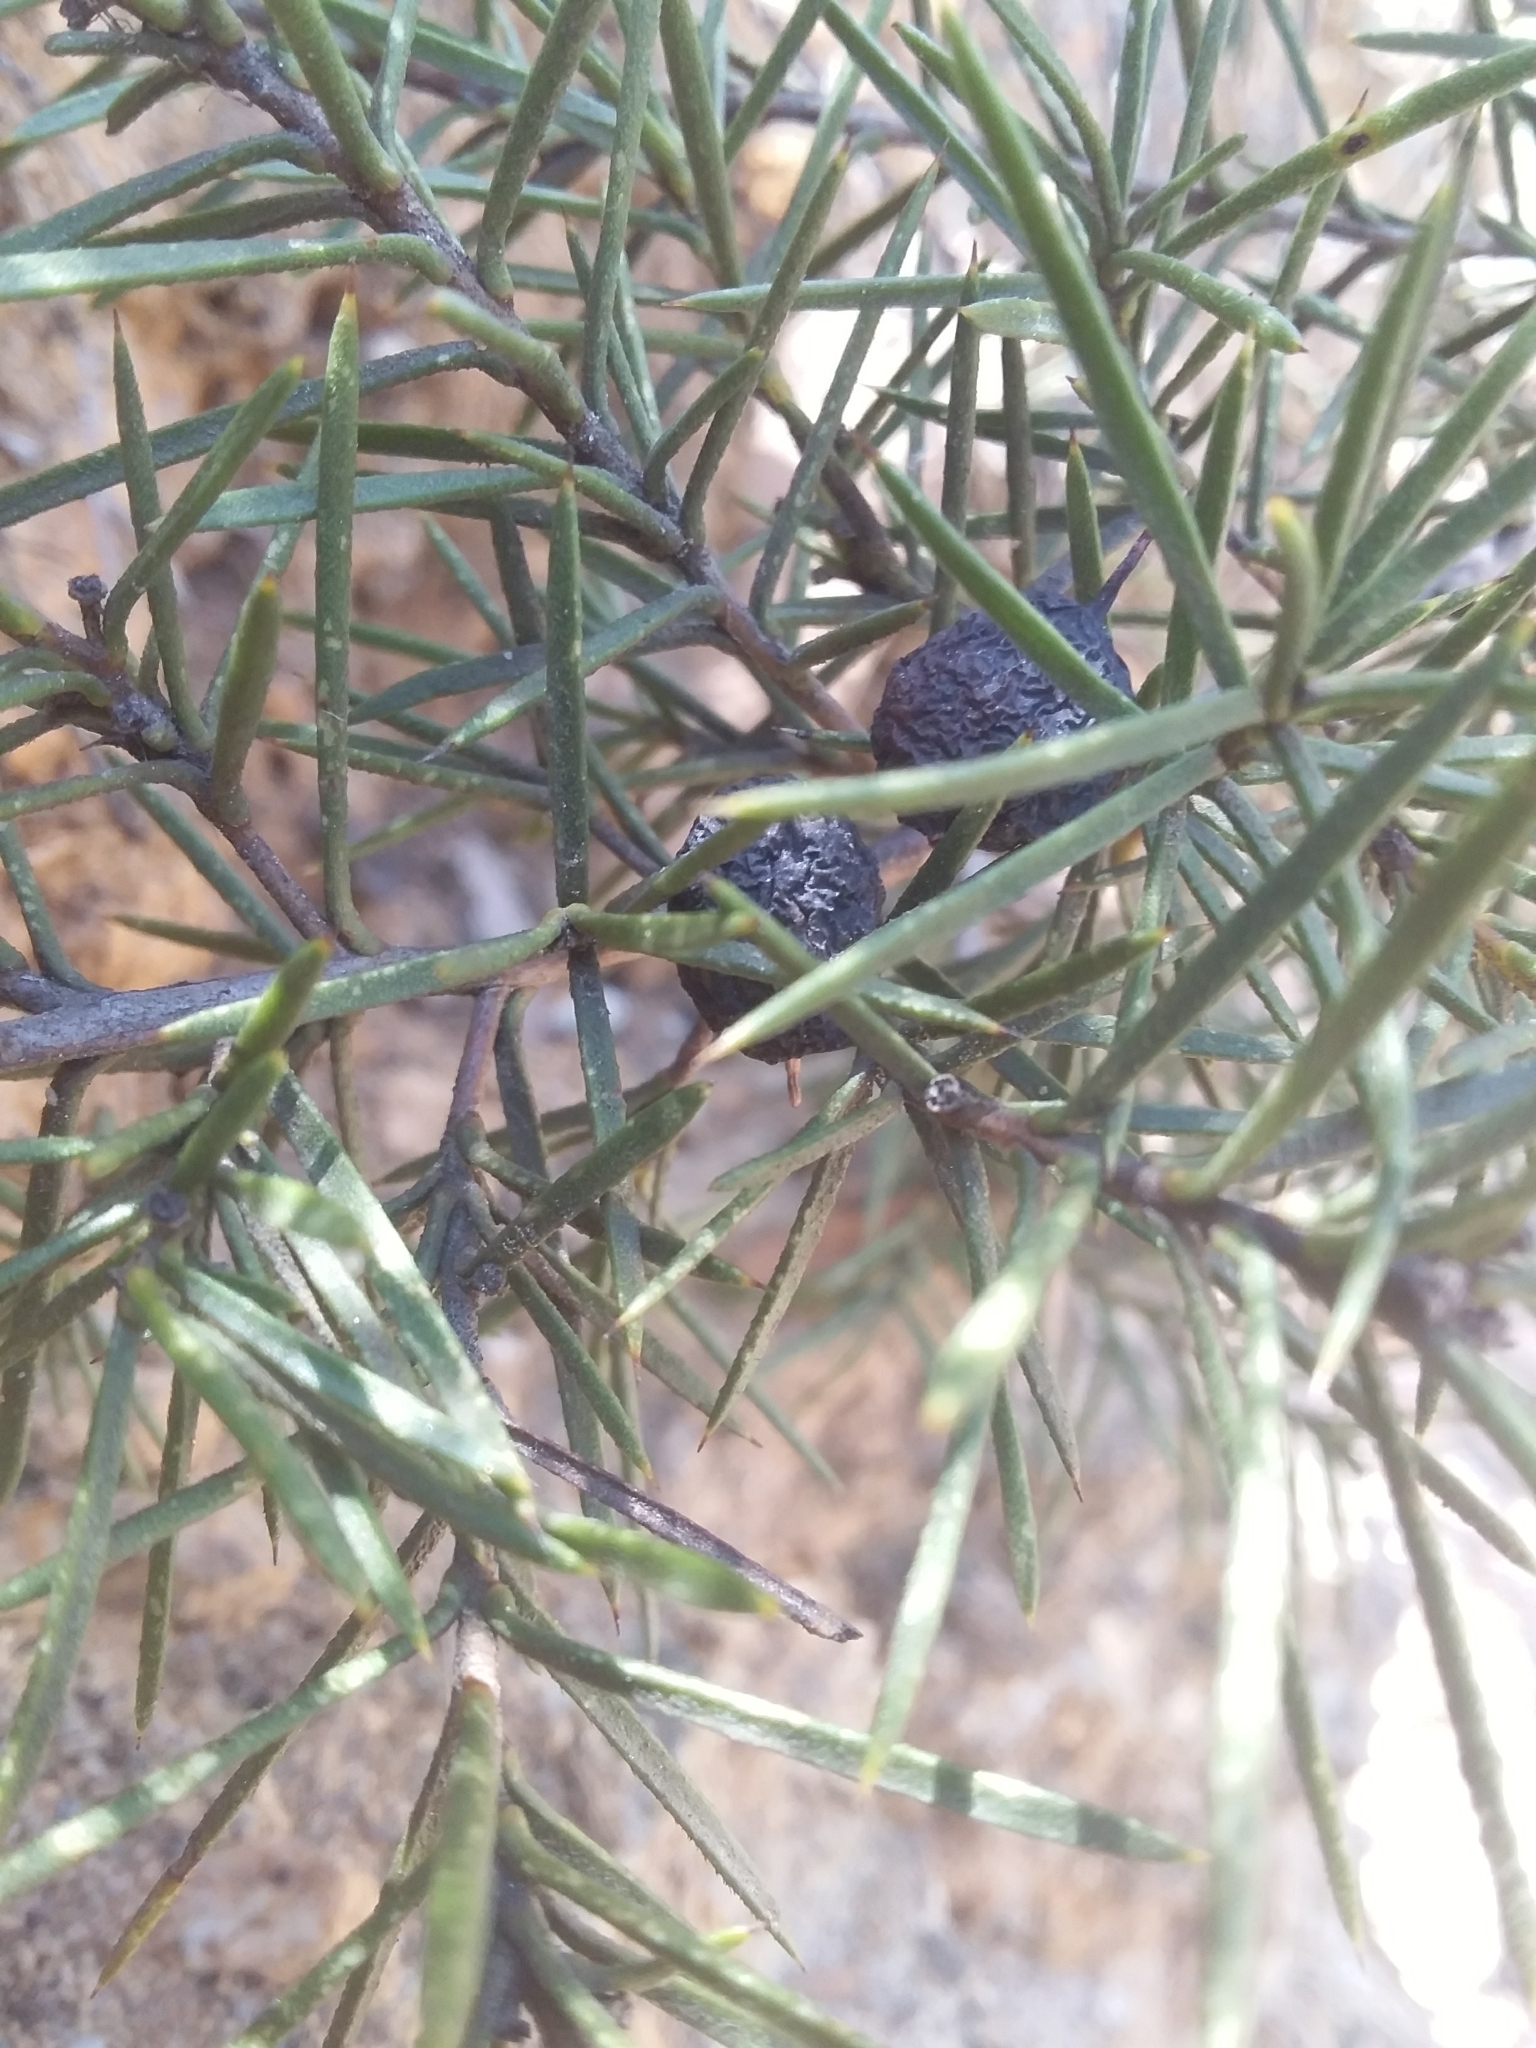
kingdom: Plantae
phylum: Tracheophyta
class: Magnoliopsida
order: Proteales
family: Proteaceae
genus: Persoonia
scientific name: Persoonia juniperina
